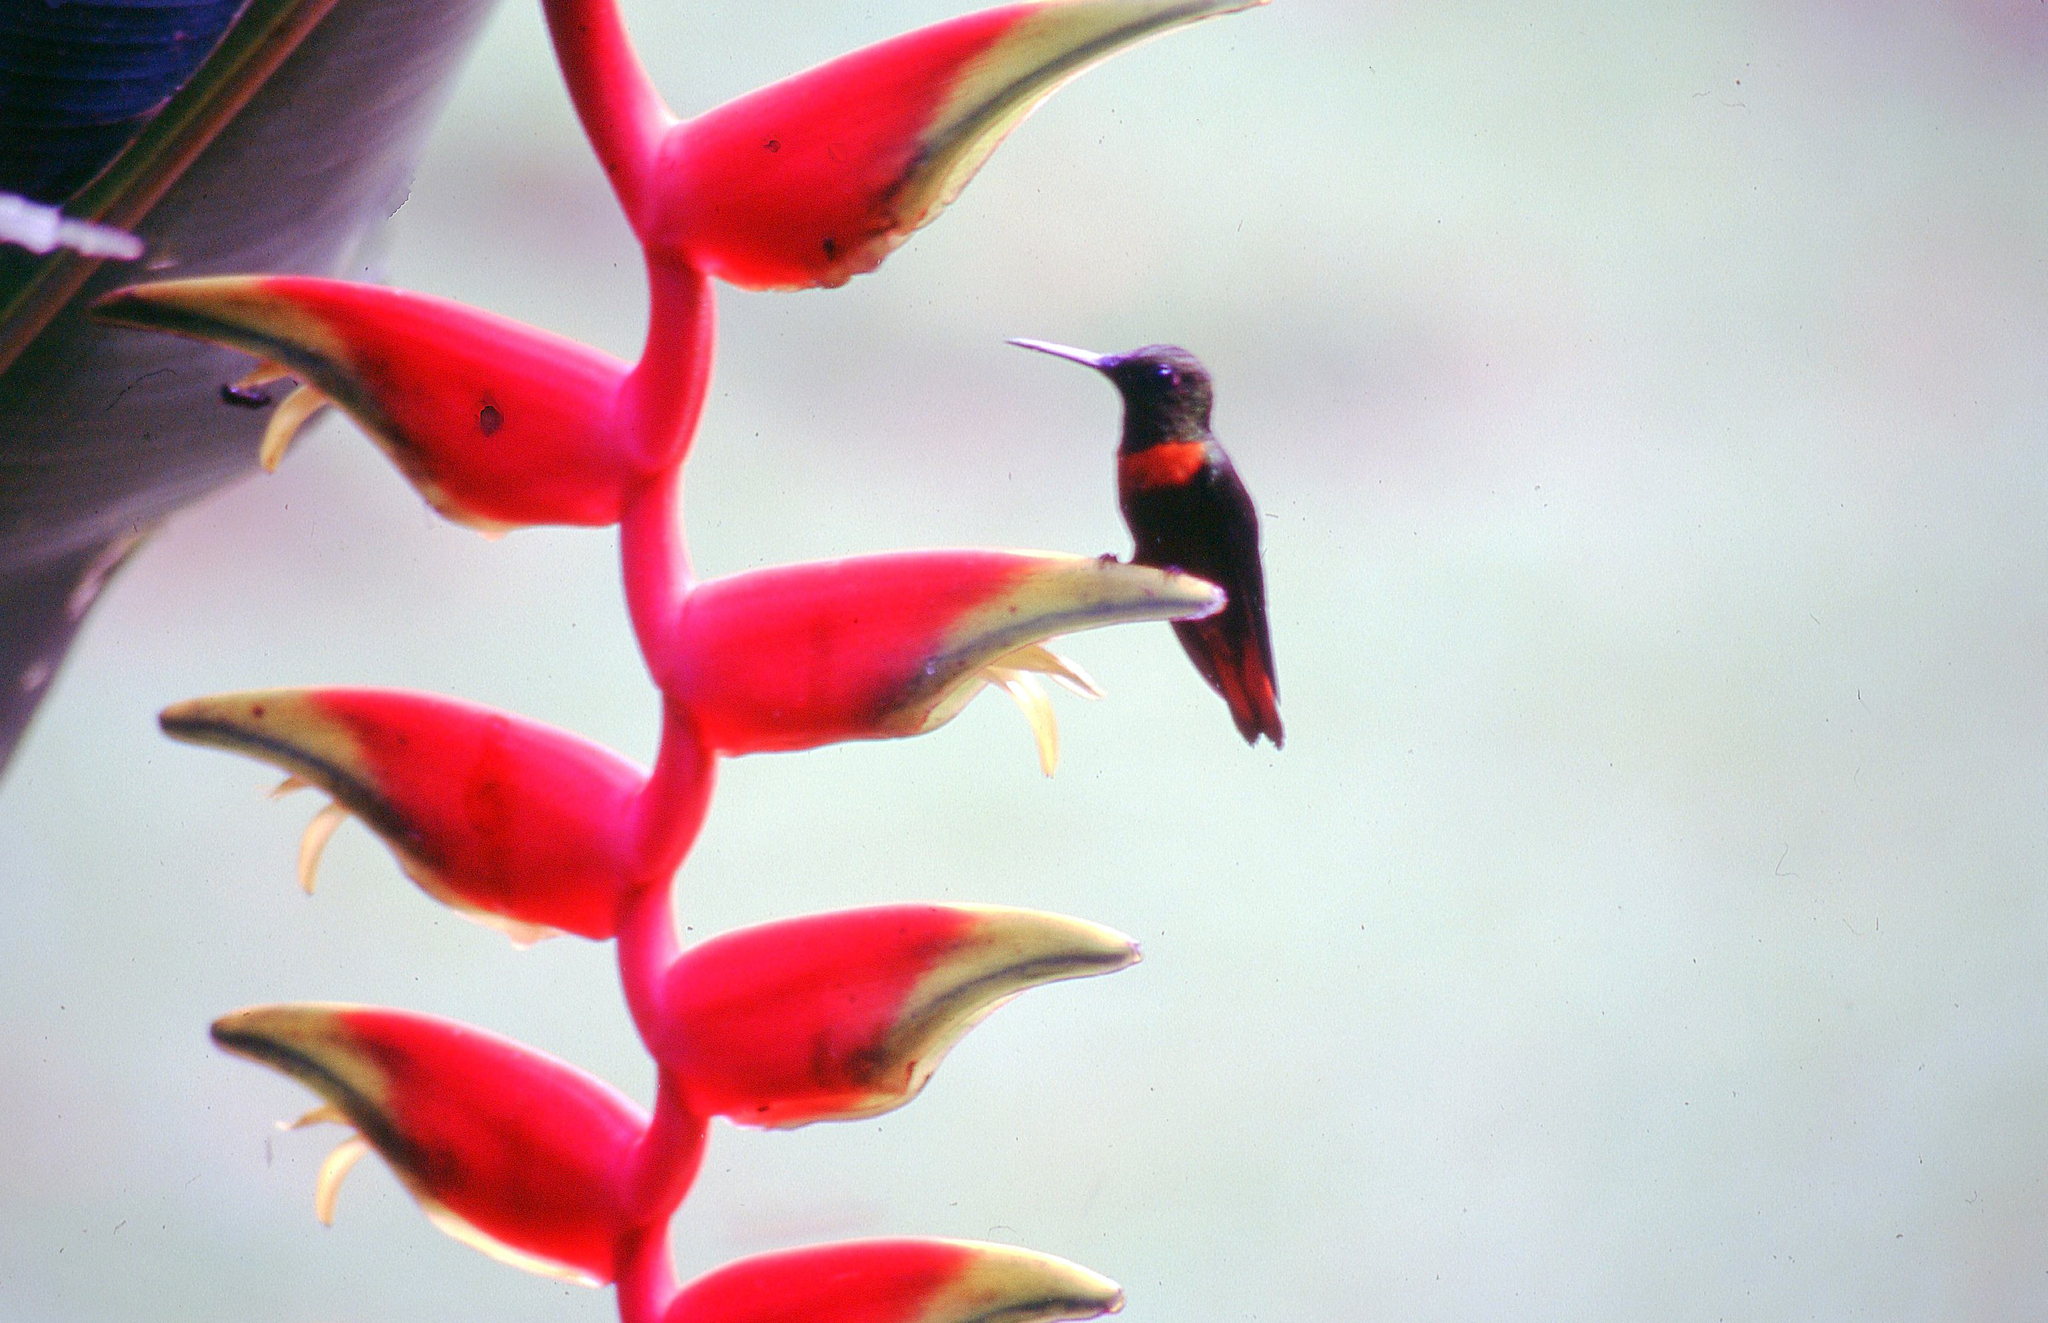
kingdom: Animalia
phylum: Chordata
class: Aves
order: Apodiformes
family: Trochilidae
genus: Heliodoxa
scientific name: Heliodoxa aurescens
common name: Gould's jewelfront
